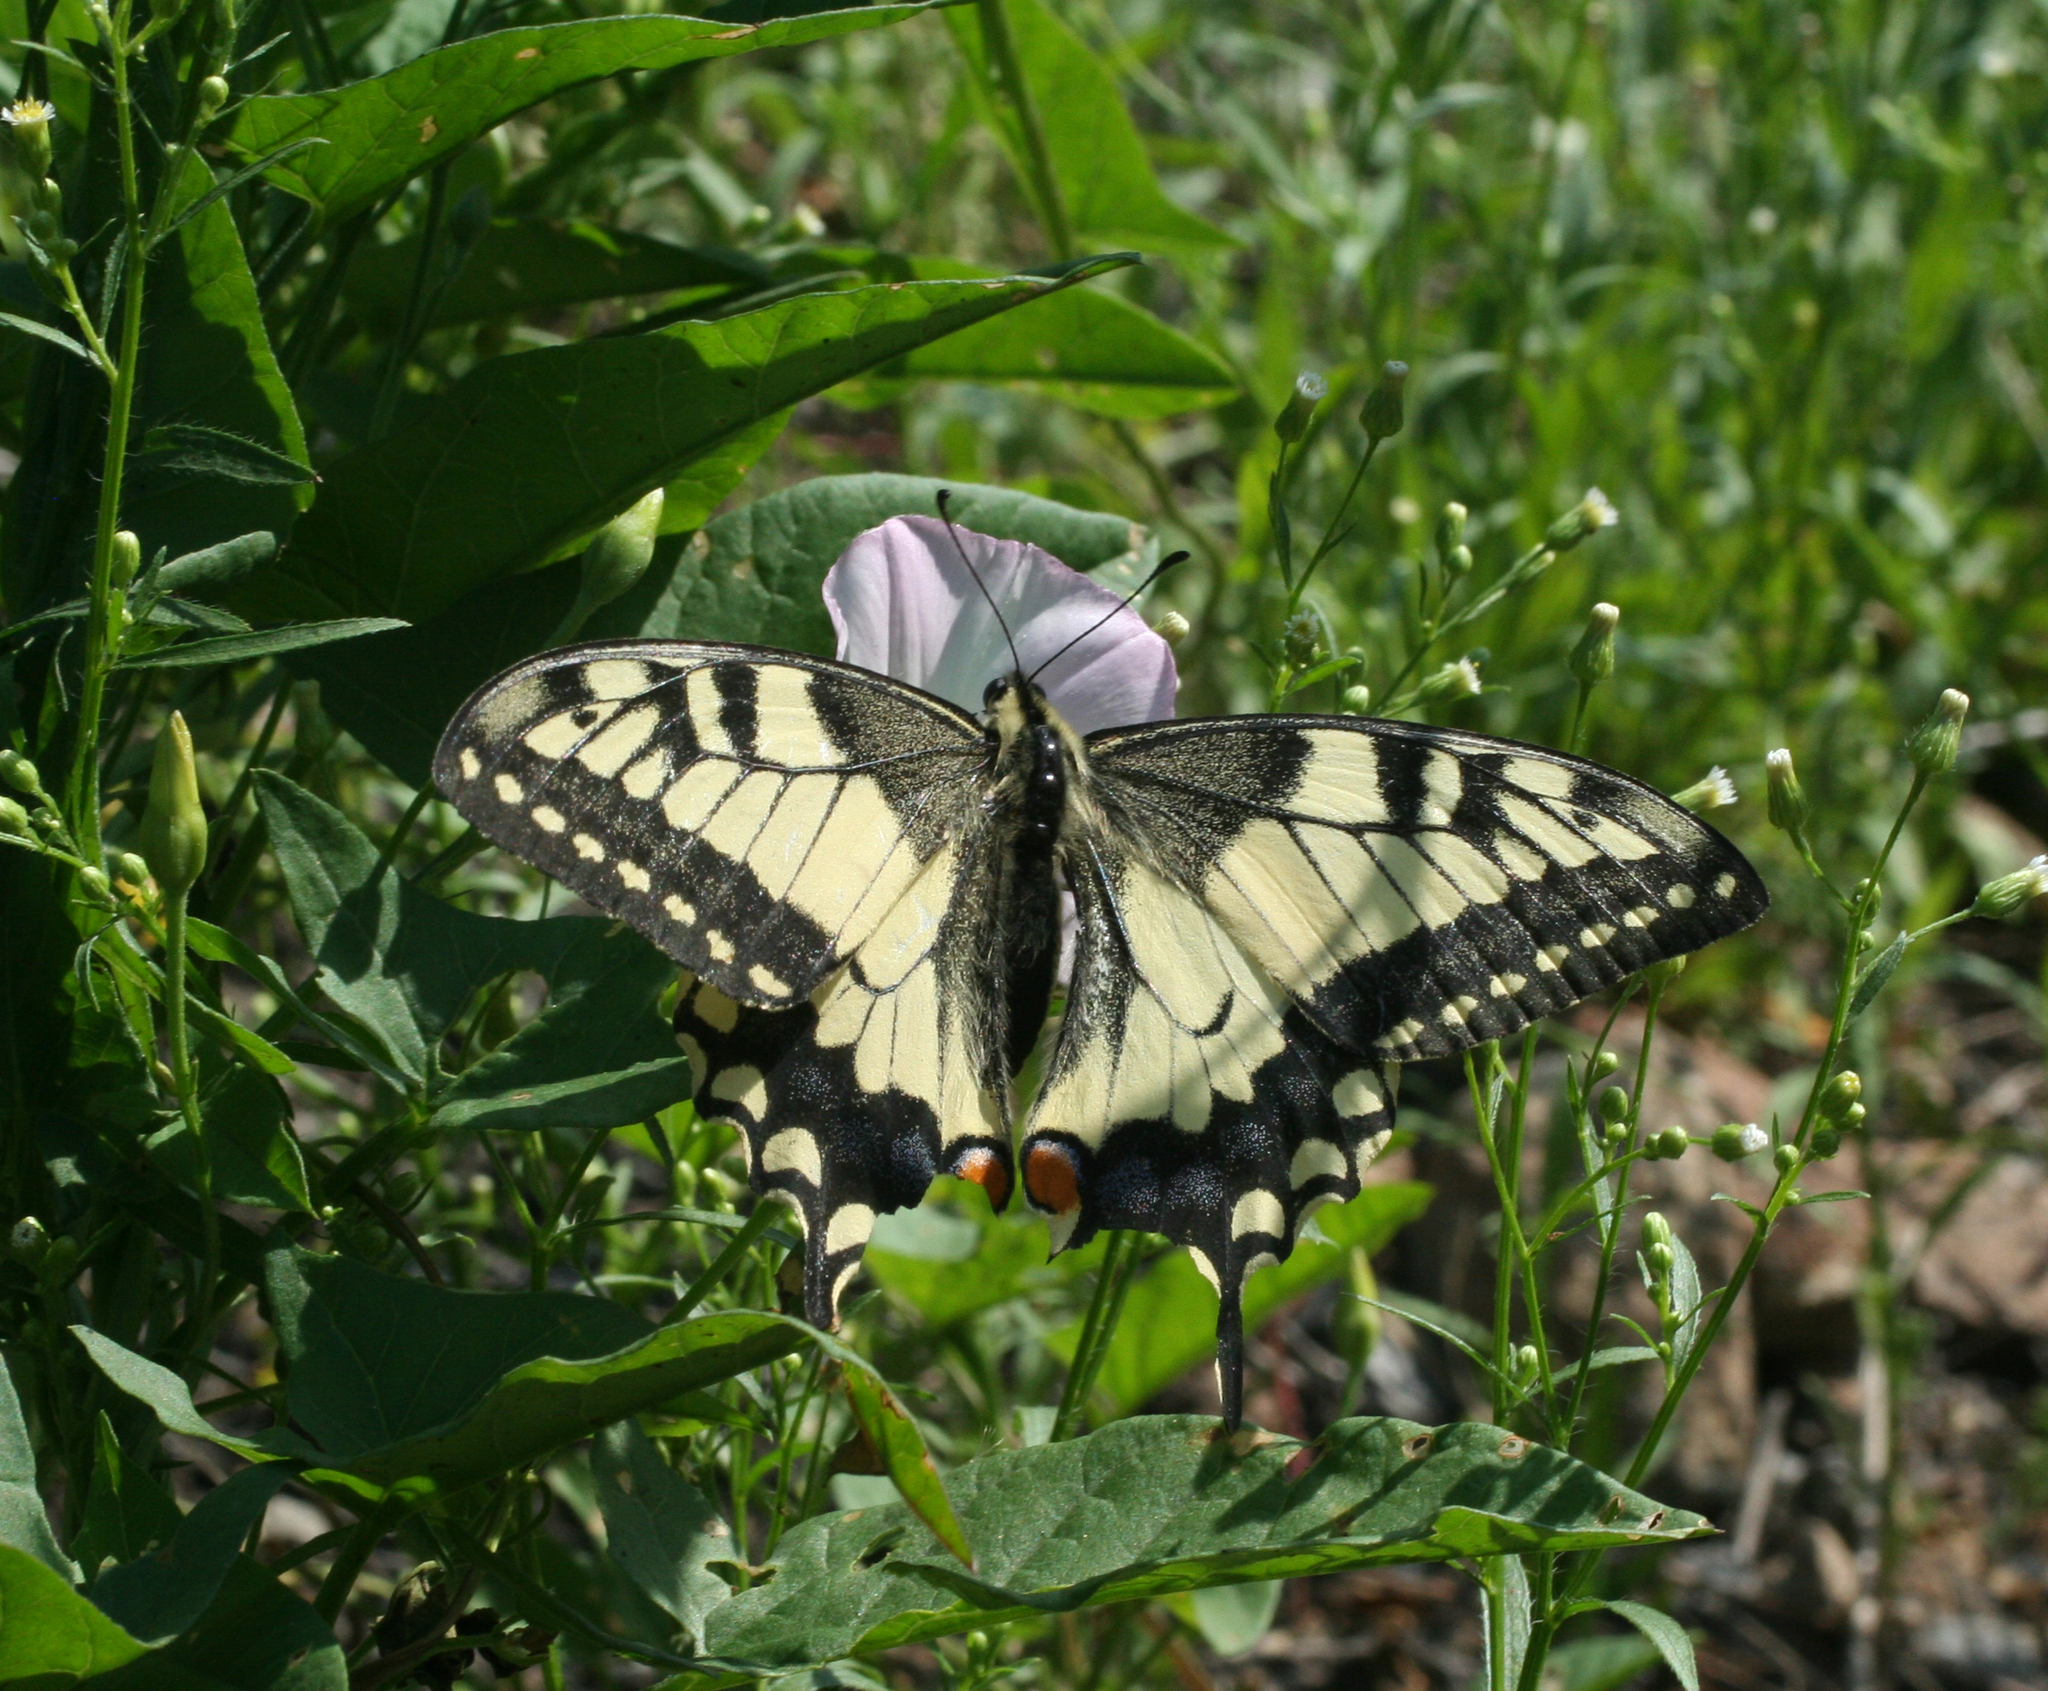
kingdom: Plantae
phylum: Tracheophyta
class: Magnoliopsida
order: Solanales
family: Convolvulaceae
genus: Convolvulus
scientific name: Convolvulus arvensis
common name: Field bindweed
